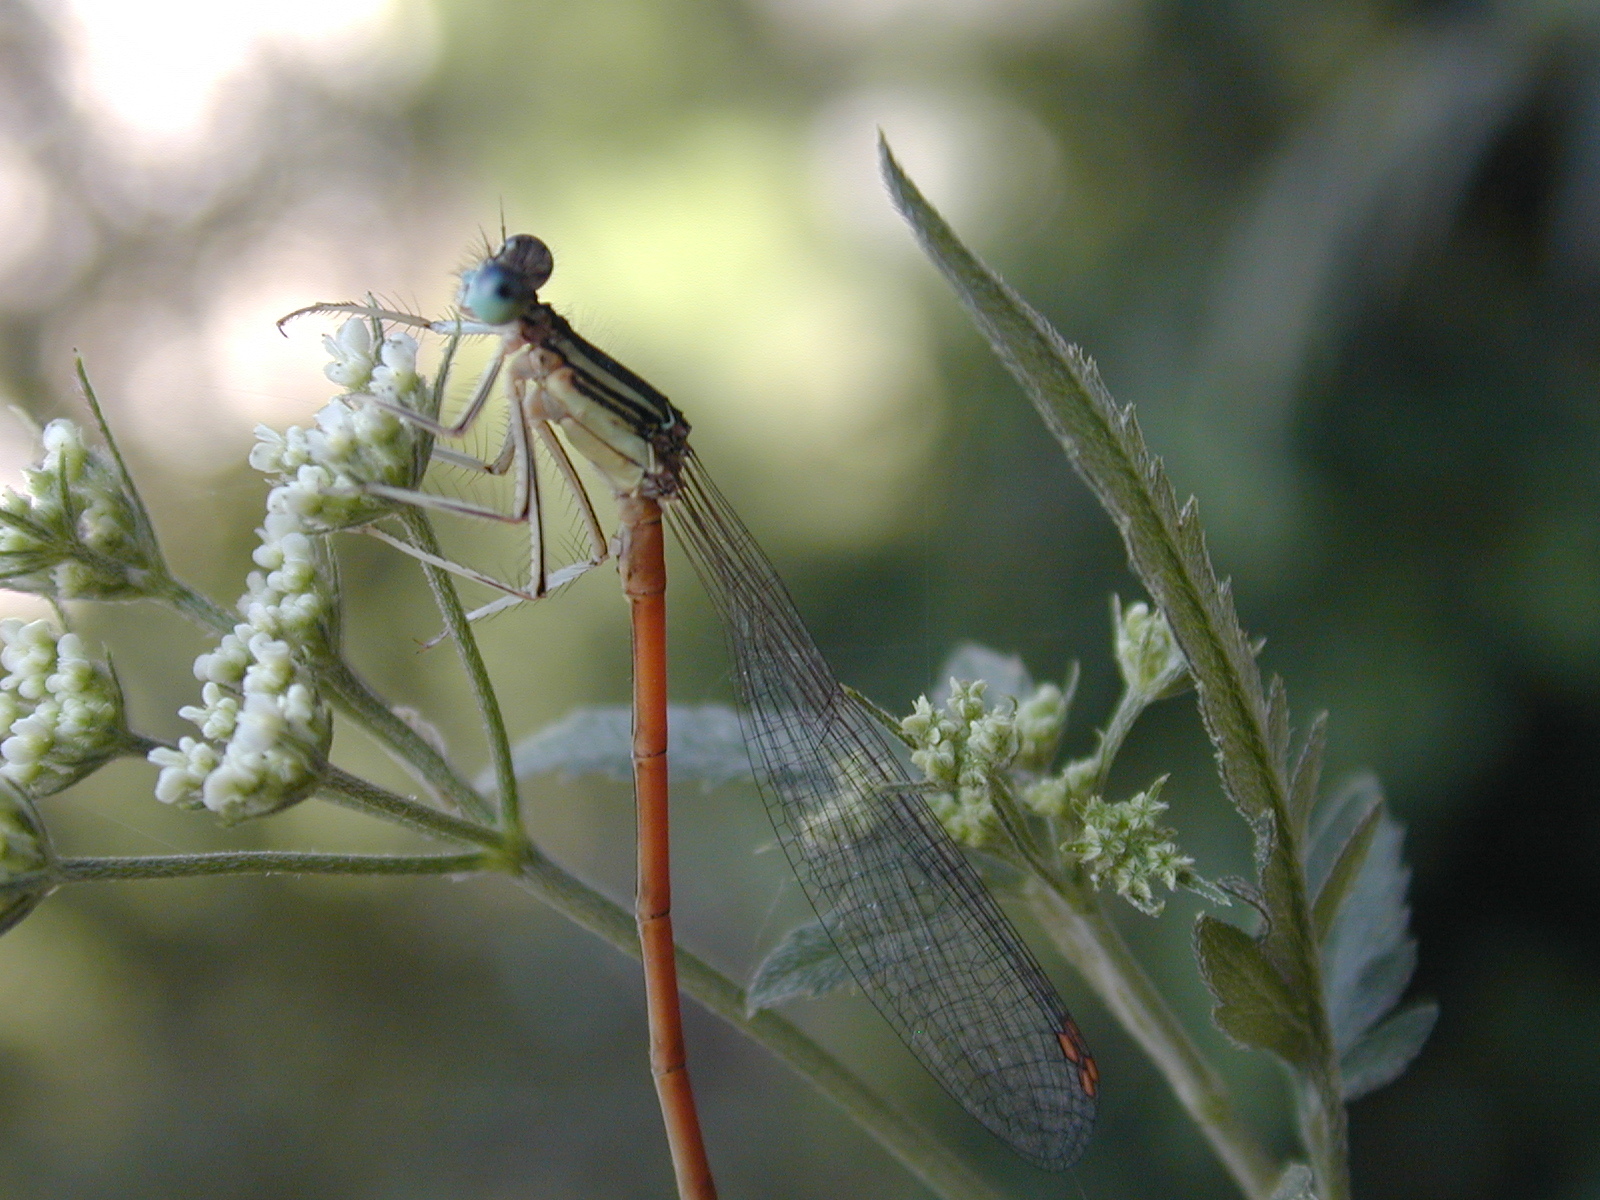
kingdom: Animalia
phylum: Arthropoda
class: Insecta
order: Odonata
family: Platycnemididae
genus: Platycnemis
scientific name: Platycnemis acutipennis
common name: Orange featherleg
